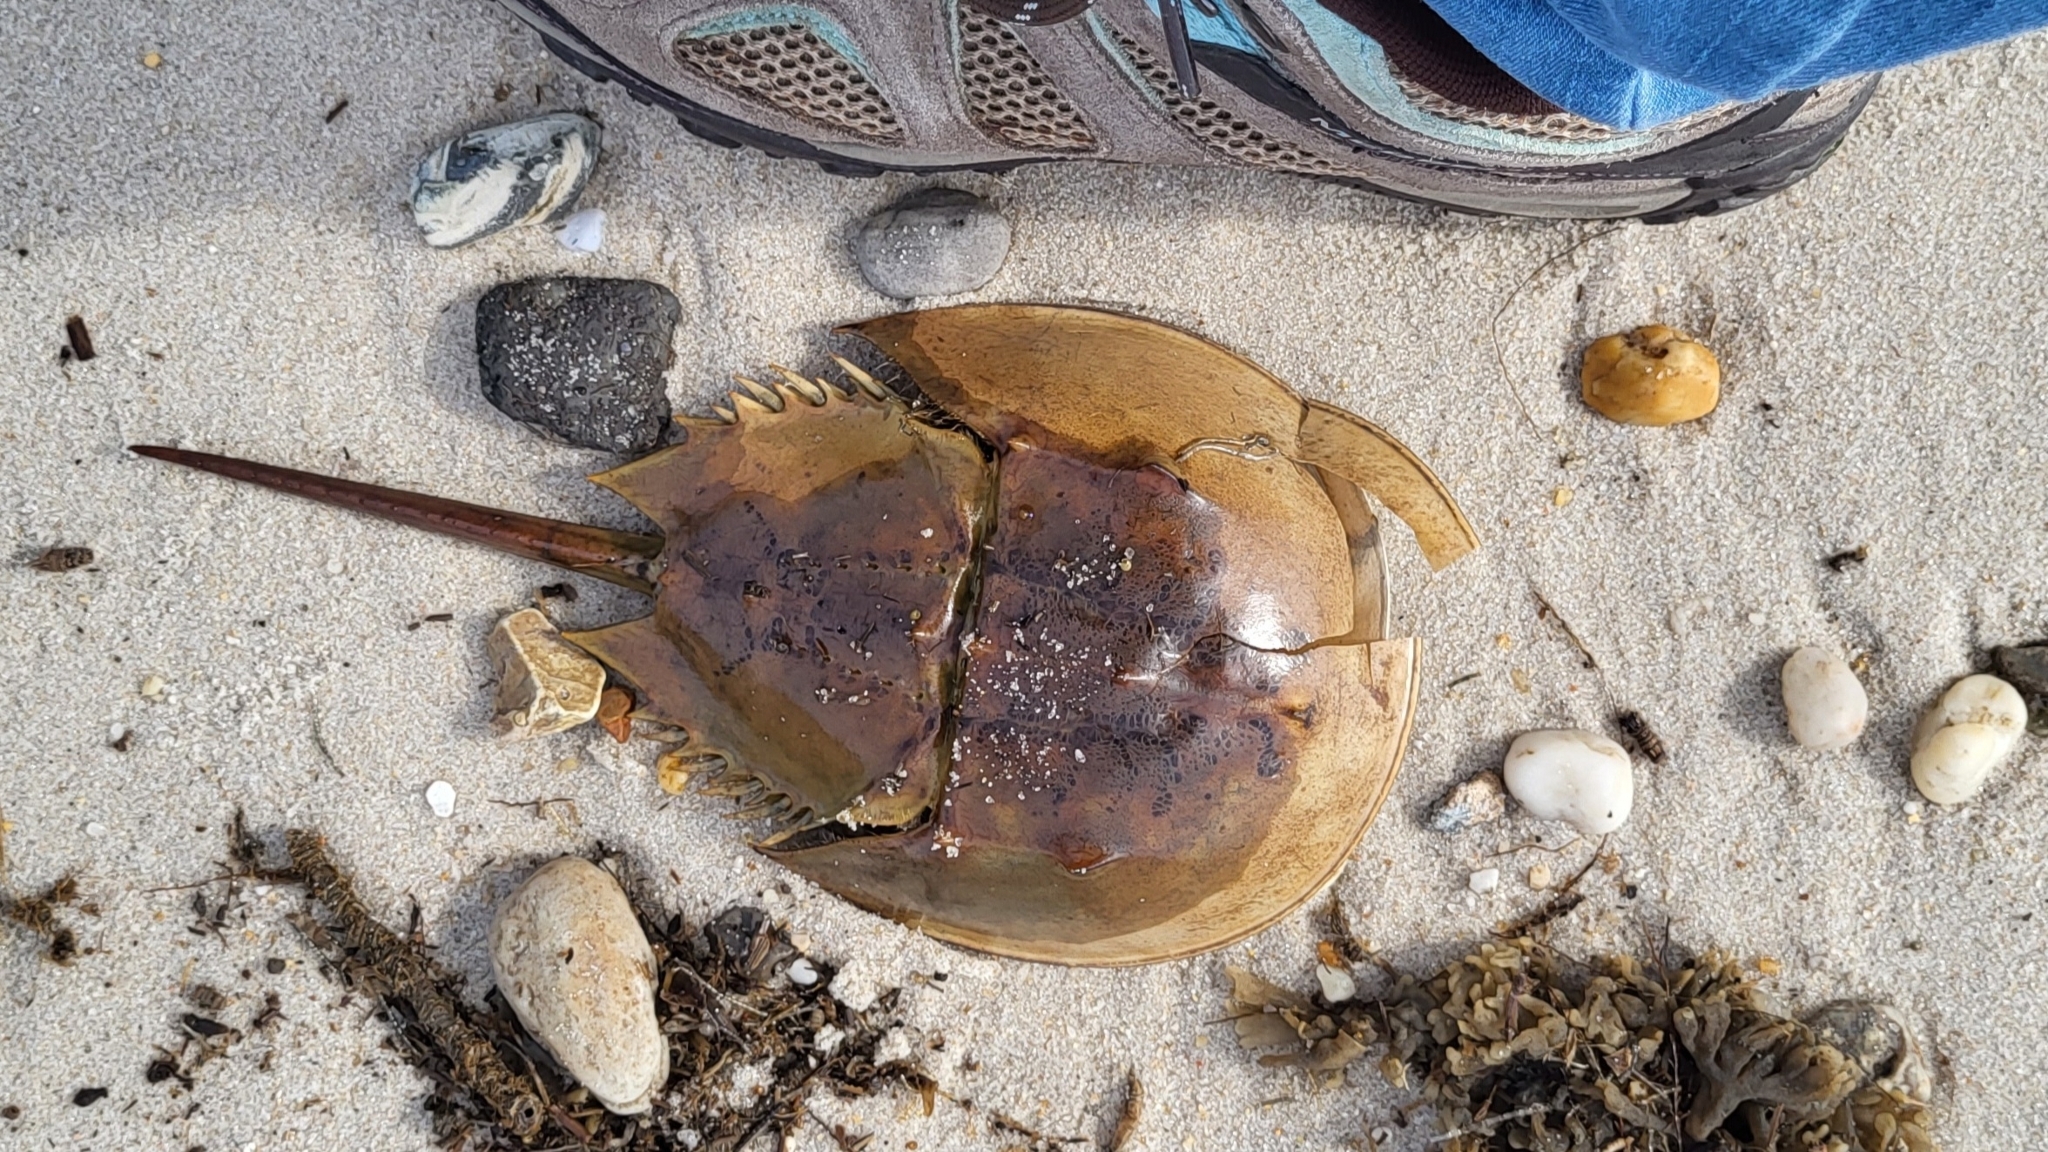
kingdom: Animalia
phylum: Arthropoda
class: Merostomata
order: Xiphosurida
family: Limulidae
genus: Limulus
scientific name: Limulus polyphemus
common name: Horseshoe crab
